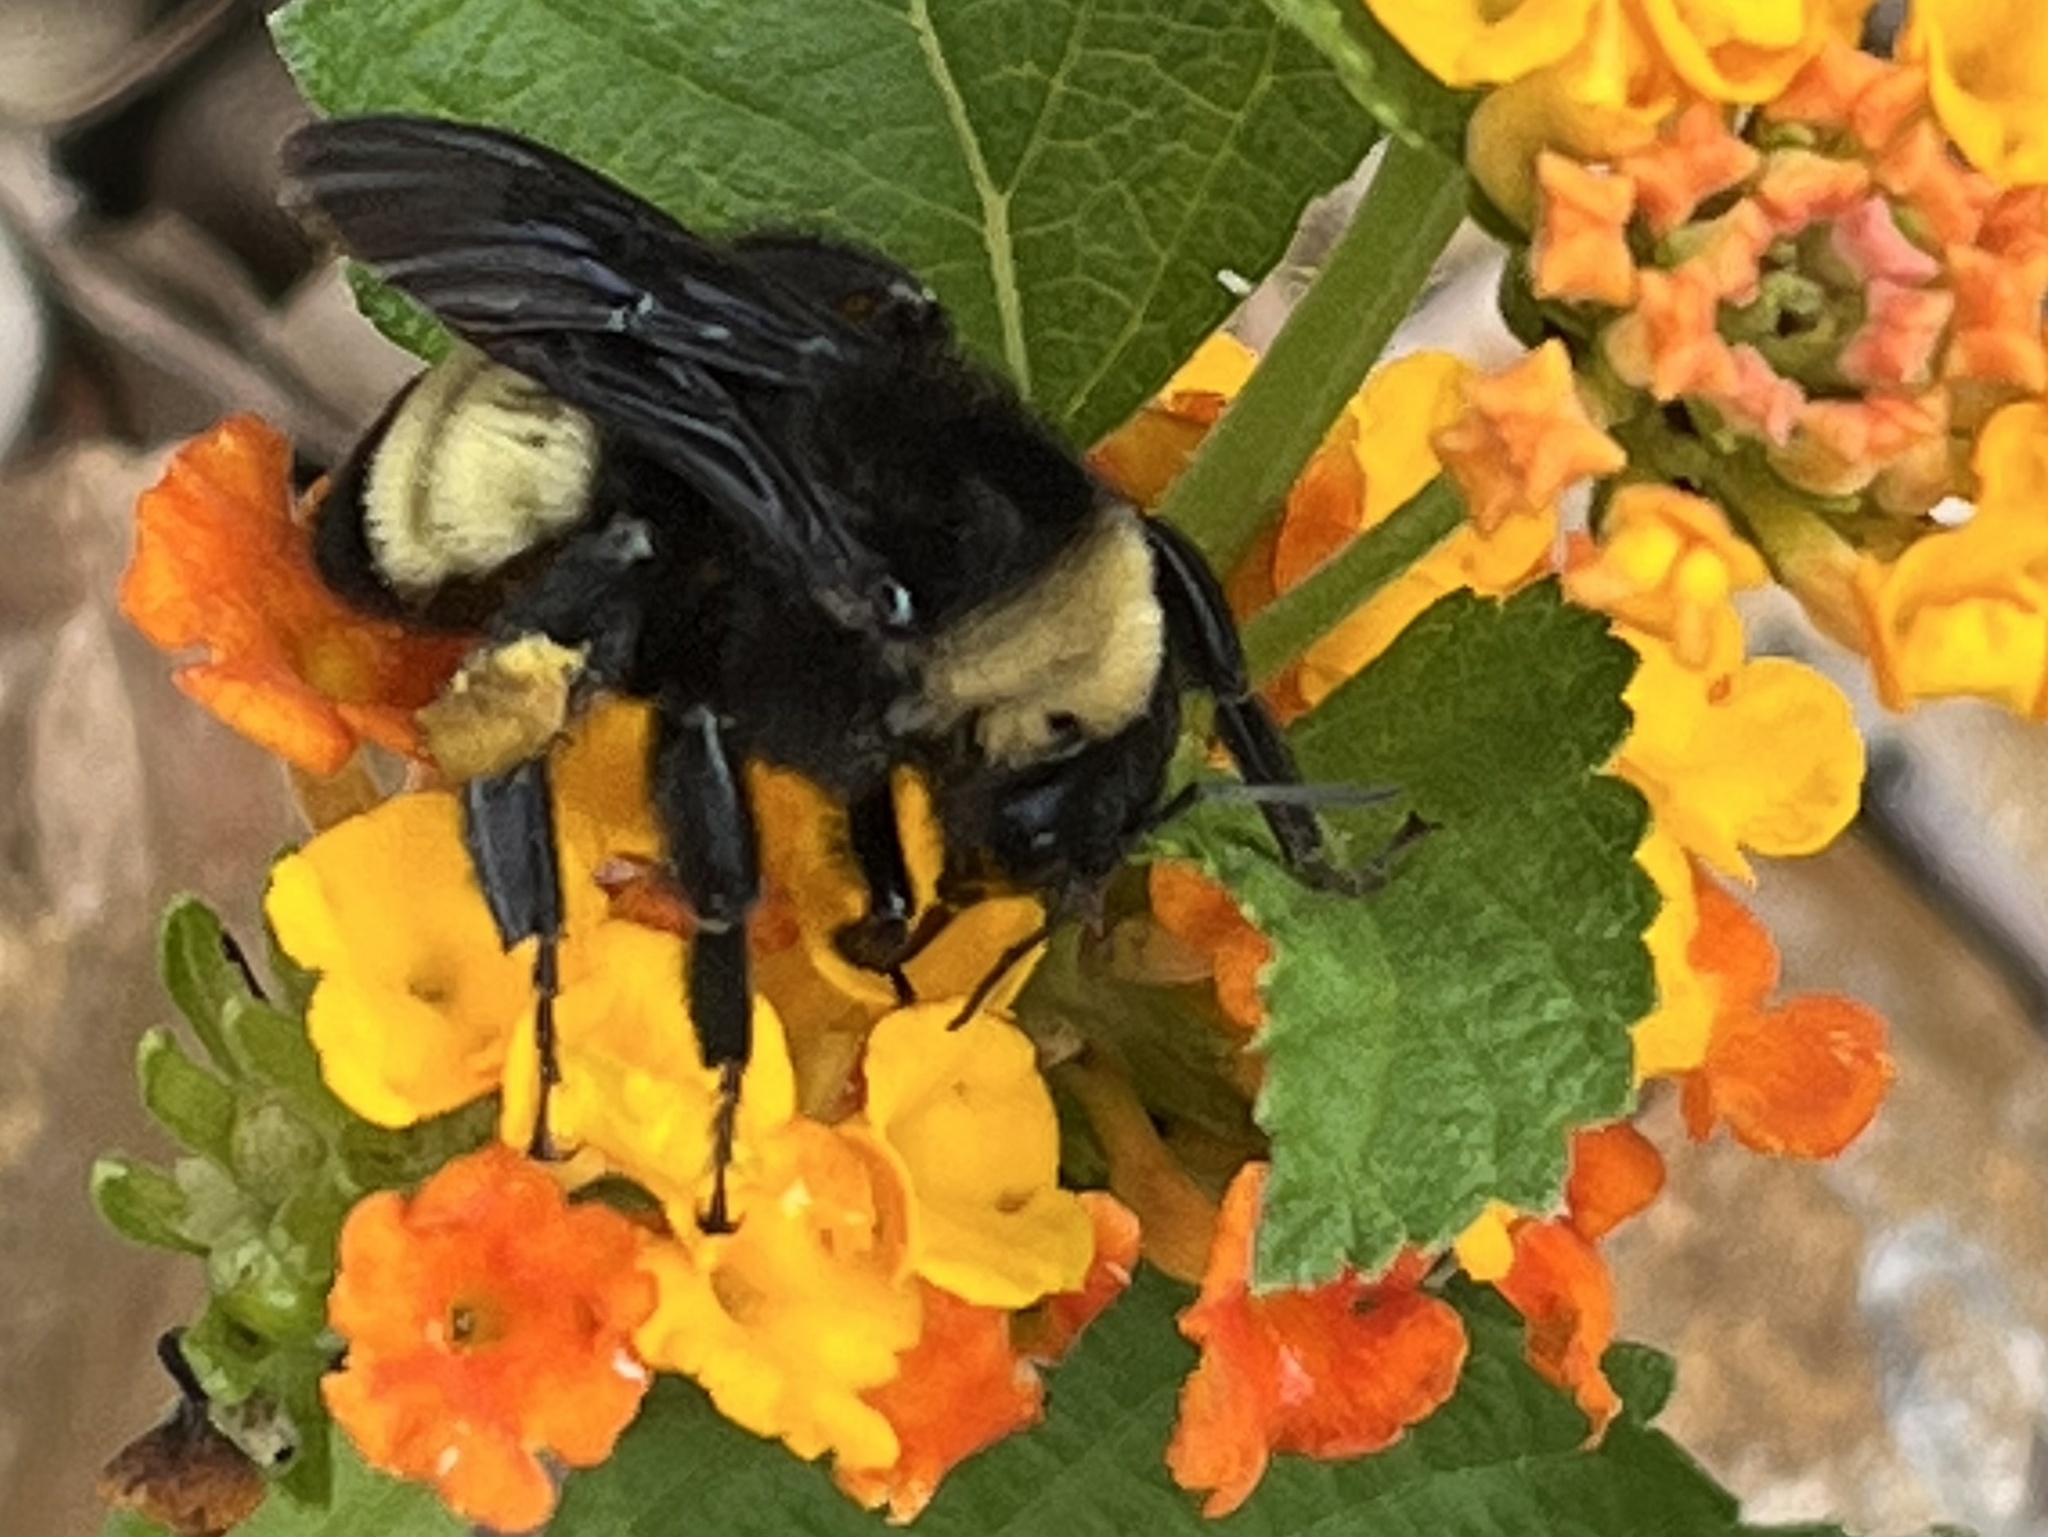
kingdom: Animalia
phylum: Arthropoda
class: Insecta
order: Hymenoptera
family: Apidae
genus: Bombus
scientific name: Bombus pensylvanicus
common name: Bumble bee
